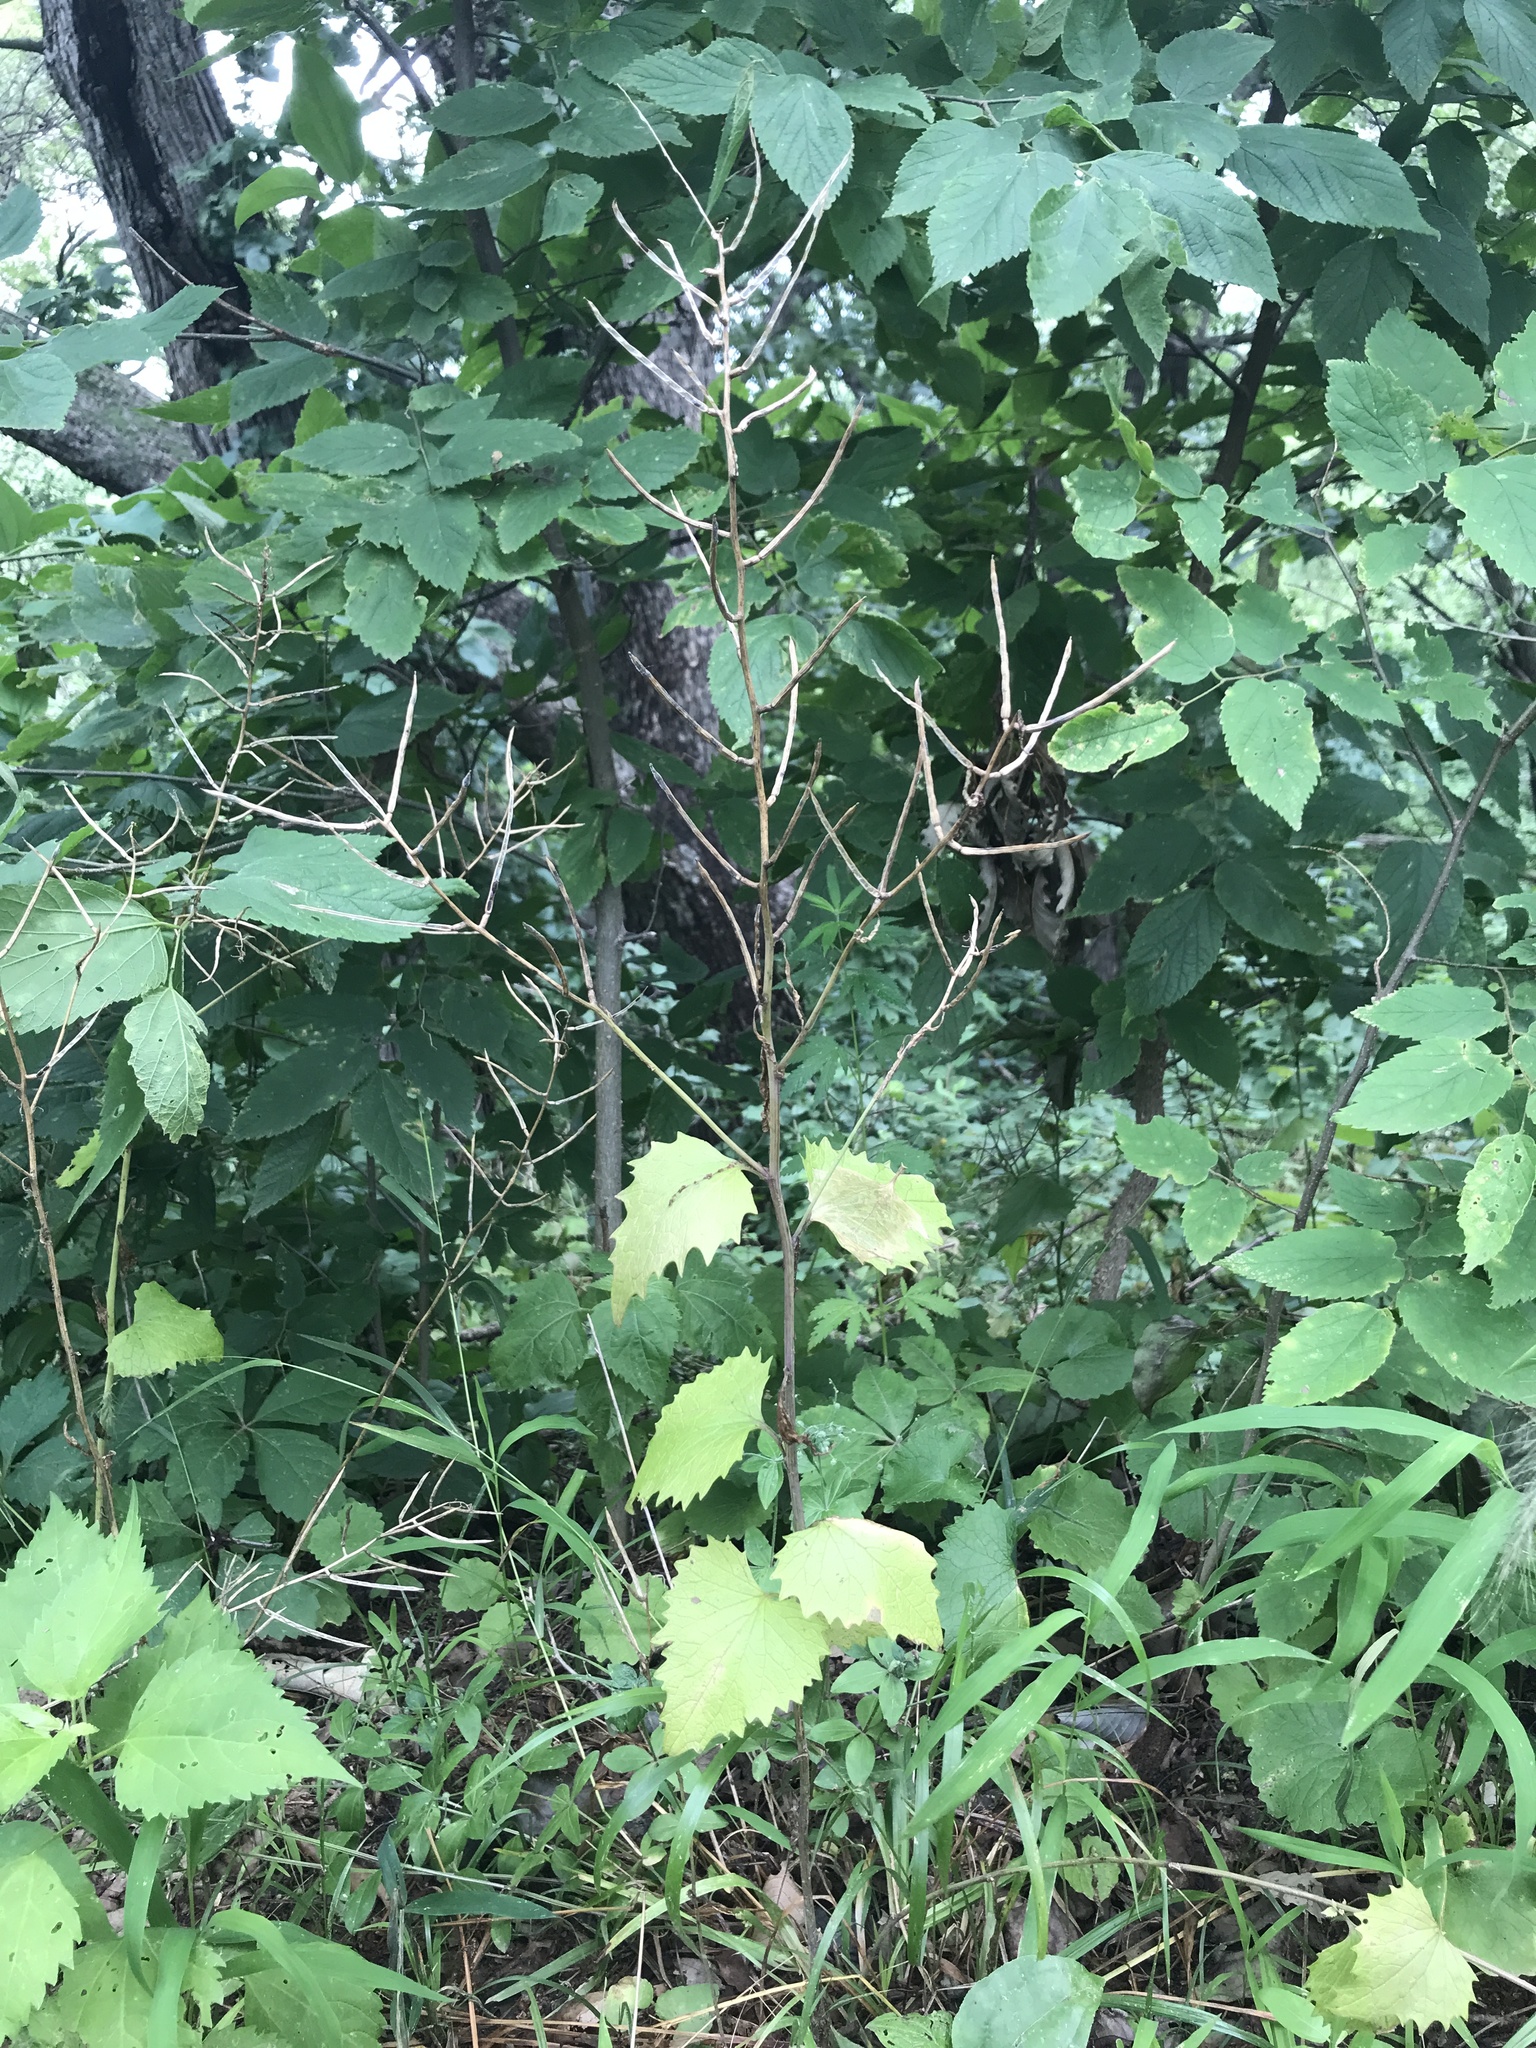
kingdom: Plantae
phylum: Tracheophyta
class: Magnoliopsida
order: Brassicales
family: Brassicaceae
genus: Alliaria
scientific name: Alliaria petiolata
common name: Garlic mustard
